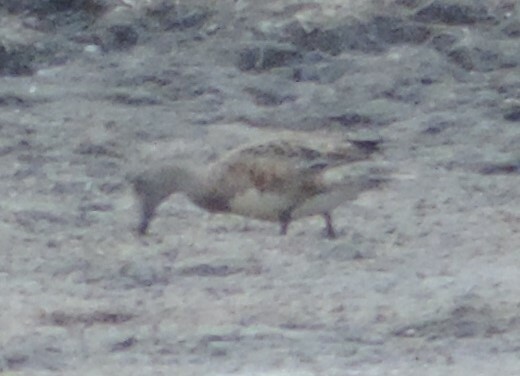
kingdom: Animalia
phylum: Chordata
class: Aves
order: Anseriformes
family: Anatidae
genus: Mareca
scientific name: Mareca americana
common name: American wigeon
